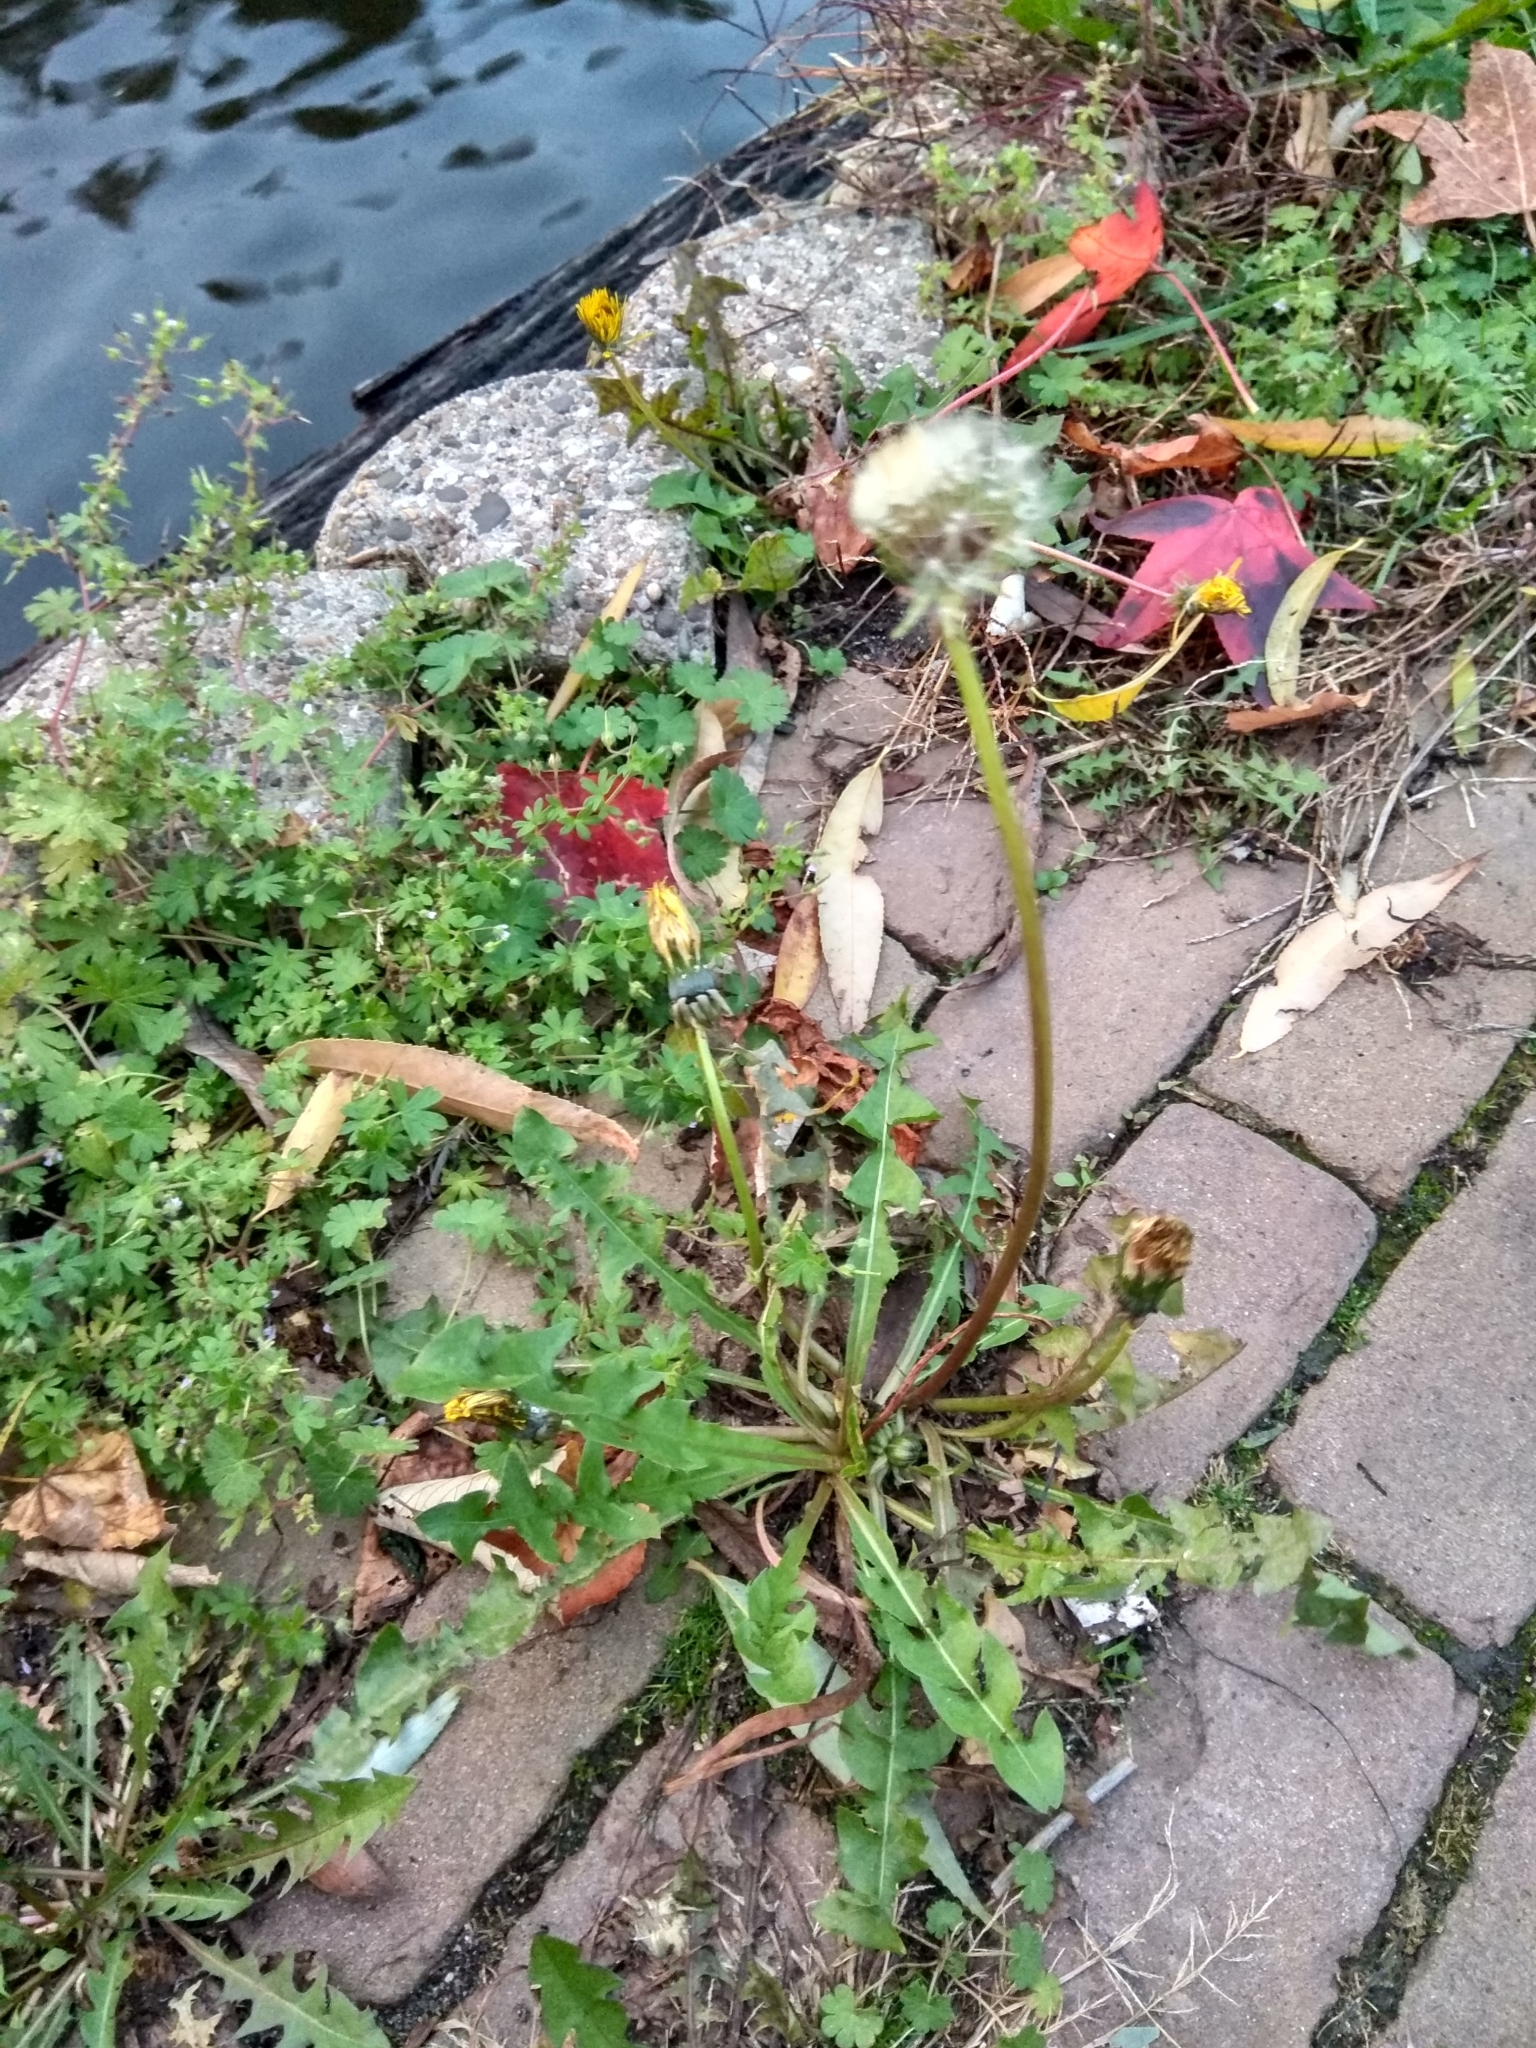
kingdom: Plantae
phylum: Tracheophyta
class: Magnoliopsida
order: Asterales
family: Asteraceae
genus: Taraxacum
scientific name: Taraxacum officinale
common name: Common dandelion
